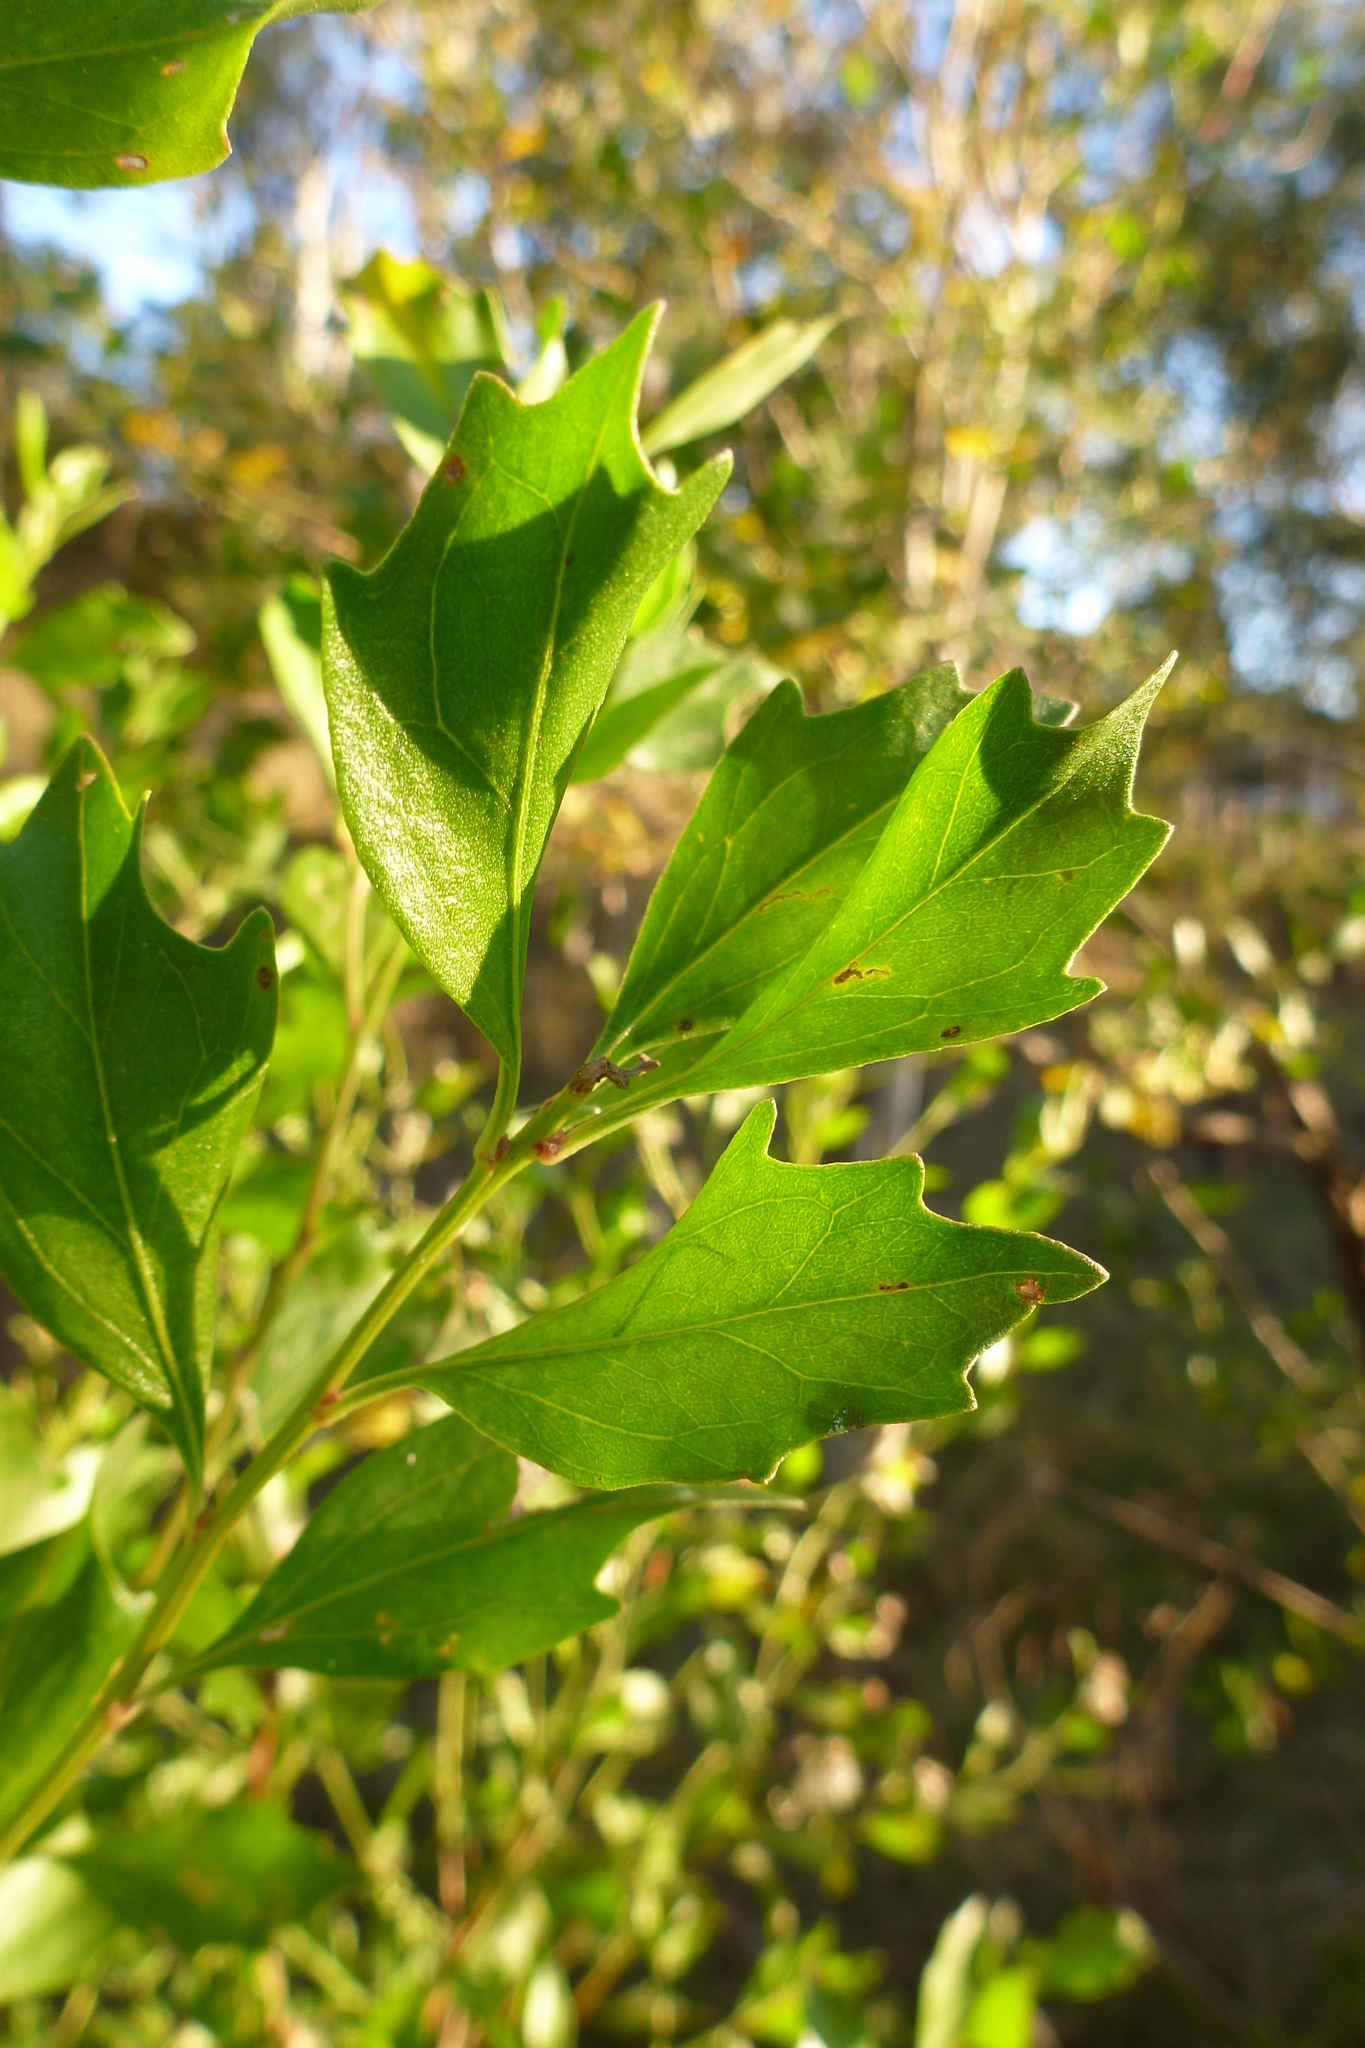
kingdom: Plantae
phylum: Tracheophyta
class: Magnoliopsida
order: Asterales
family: Asteraceae
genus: Baccharis
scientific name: Baccharis halimifolia
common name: Eastern baccharis
